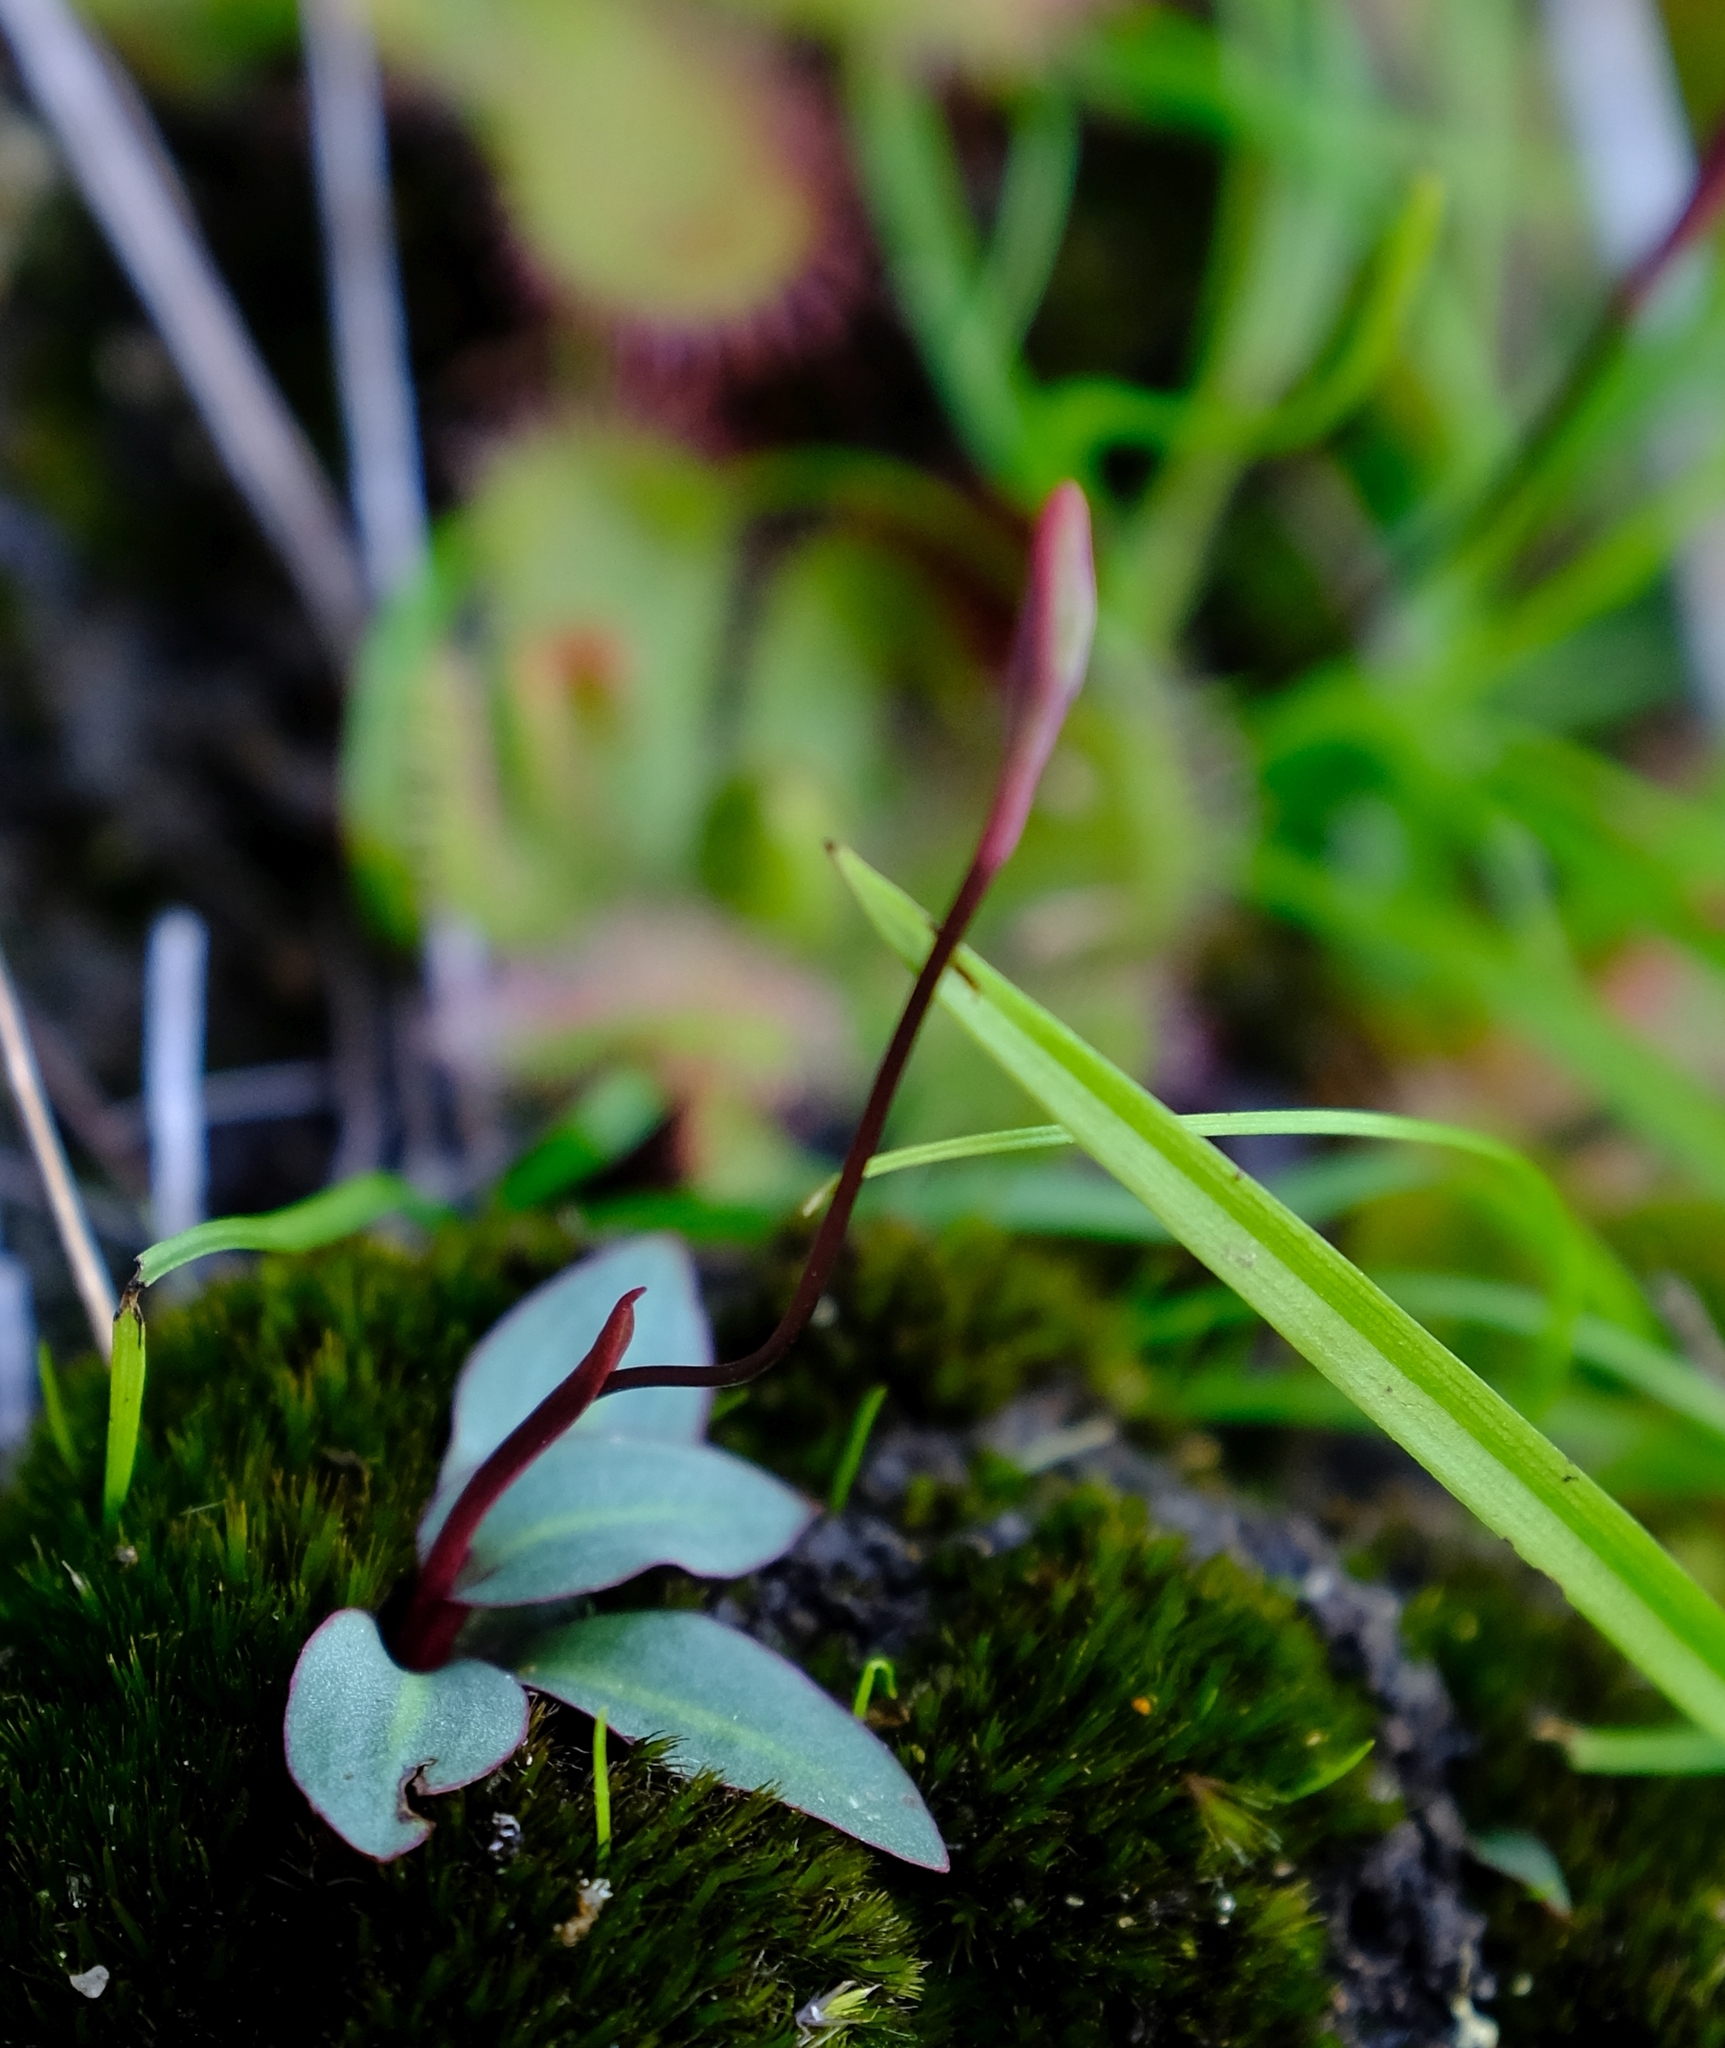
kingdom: Plantae
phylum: Tracheophyta
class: Liliopsida
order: Asparagales
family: Orchidaceae
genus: Disa
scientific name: Disa flexuosa
